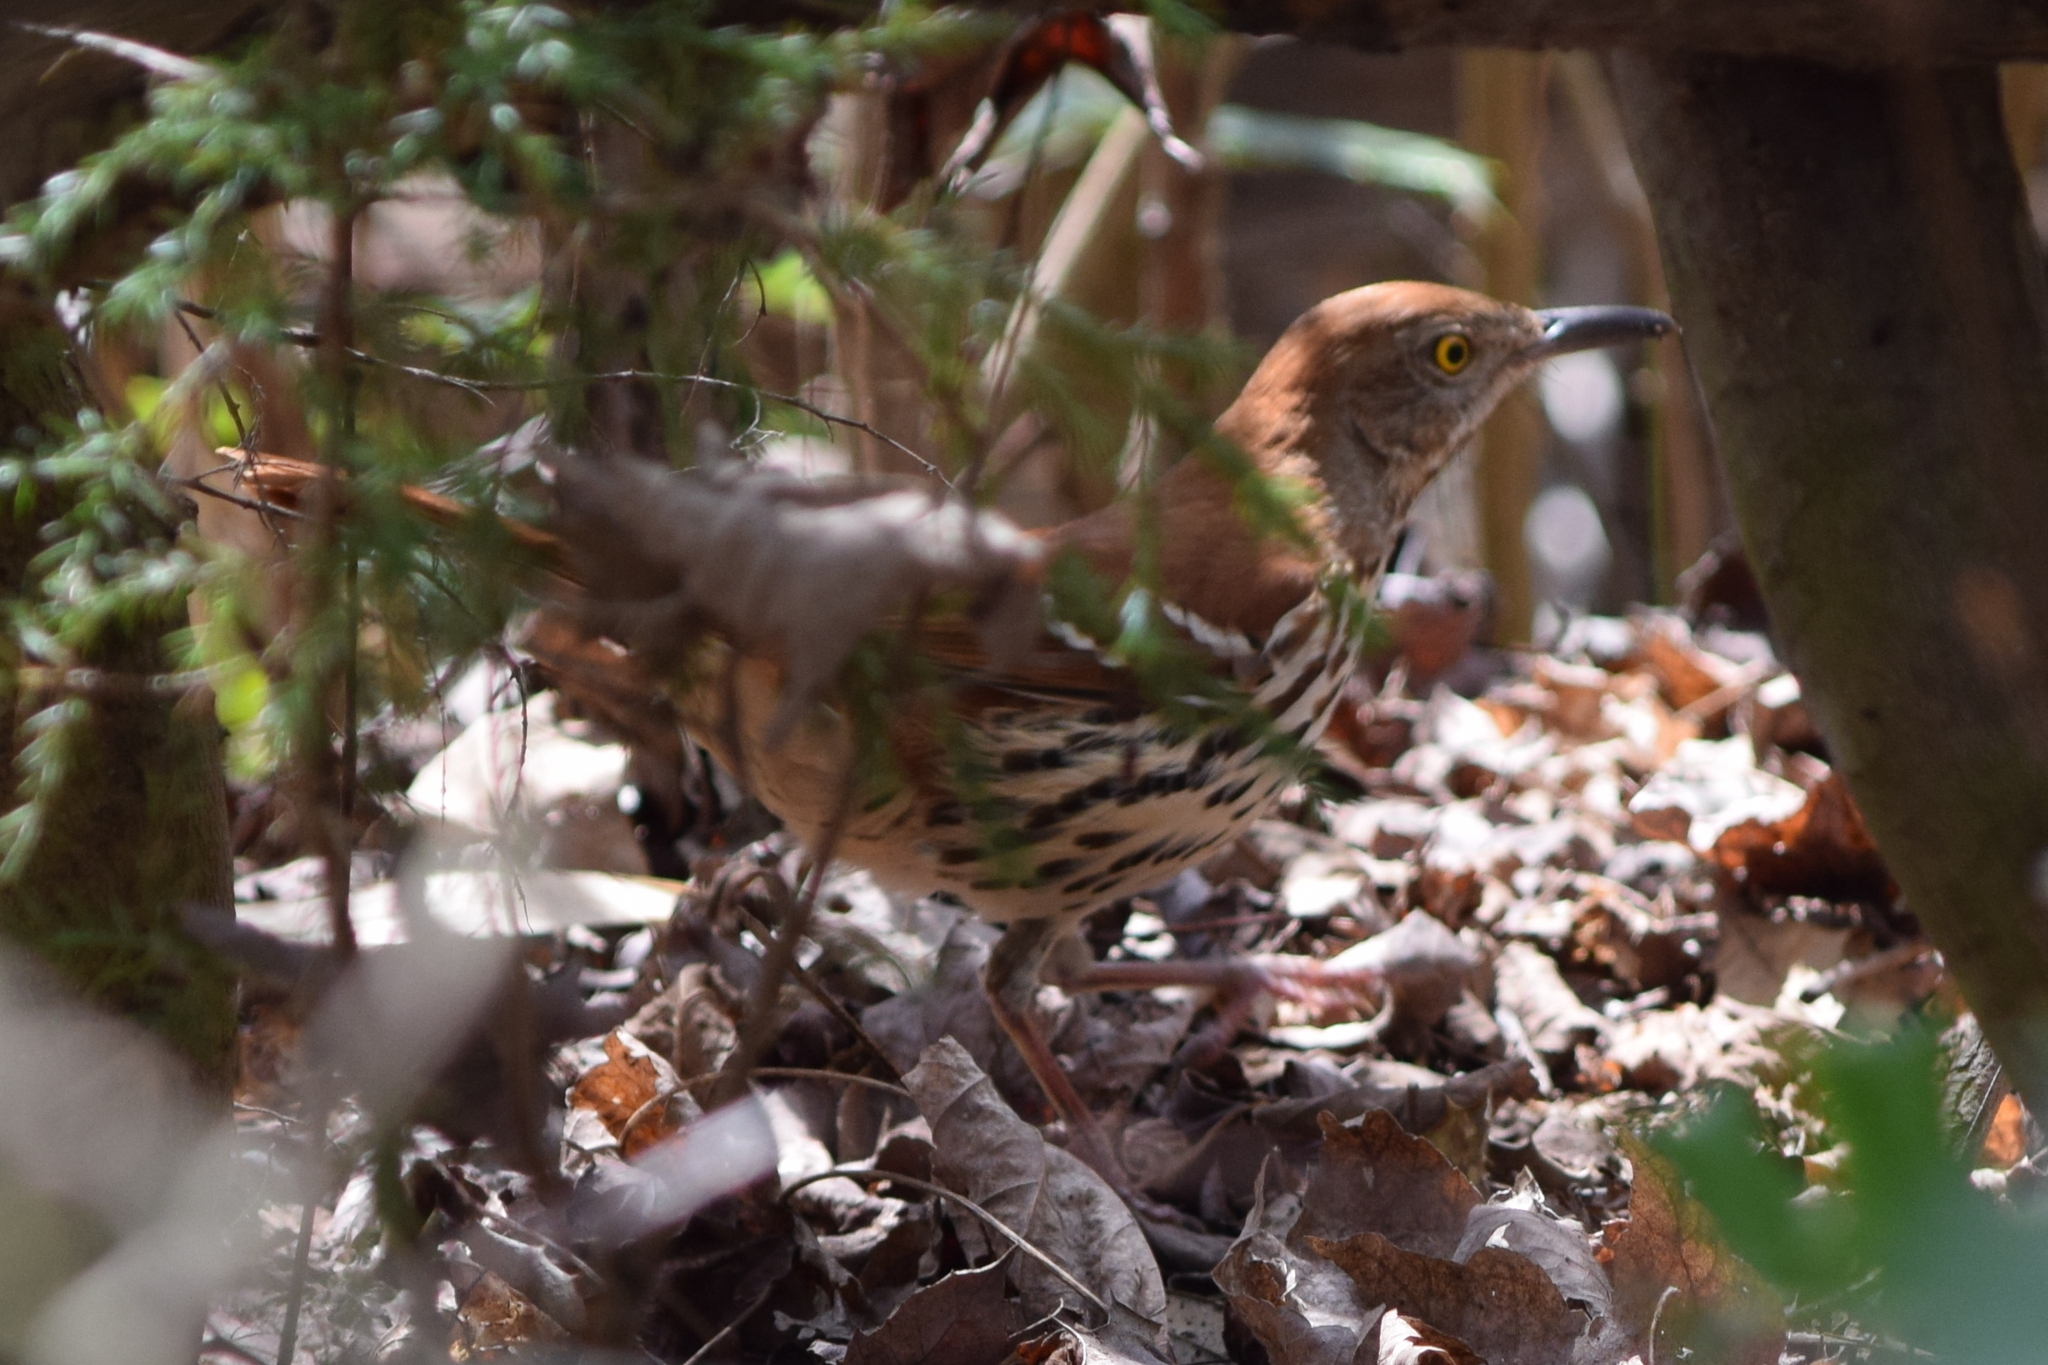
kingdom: Animalia
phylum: Chordata
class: Aves
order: Passeriformes
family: Mimidae
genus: Toxostoma
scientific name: Toxostoma rufum
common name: Brown thrasher
